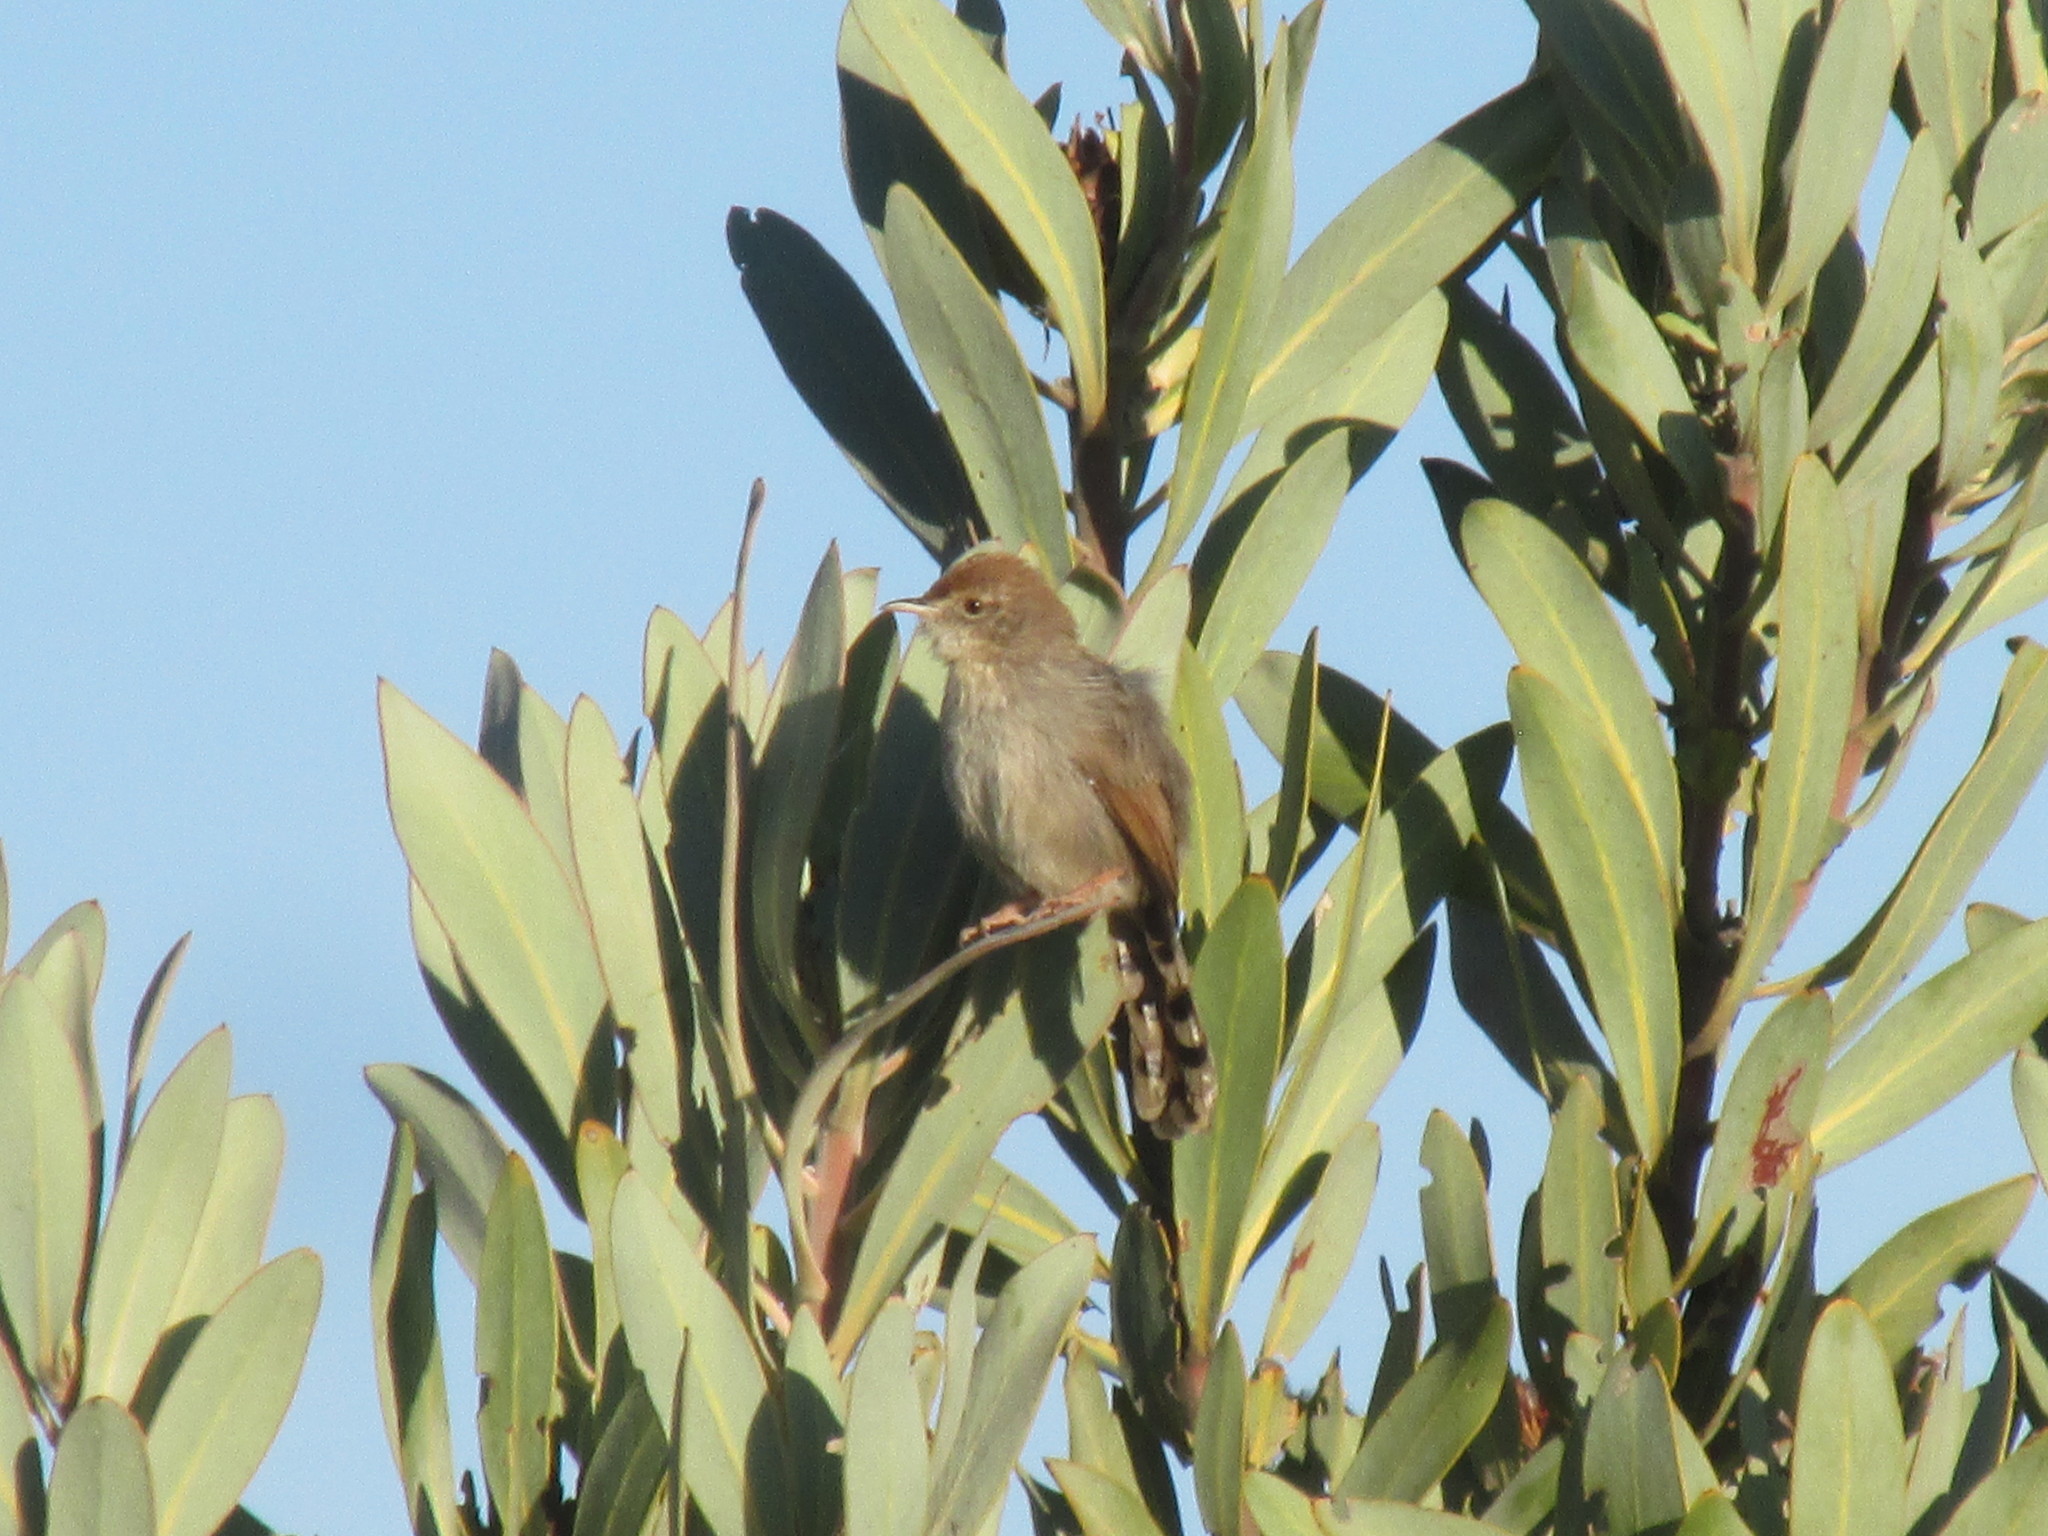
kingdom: Animalia
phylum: Chordata
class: Aves
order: Passeriformes
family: Cisticolidae
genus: Cisticola
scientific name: Cisticola subruficapilla
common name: Grey-backed cisticola
